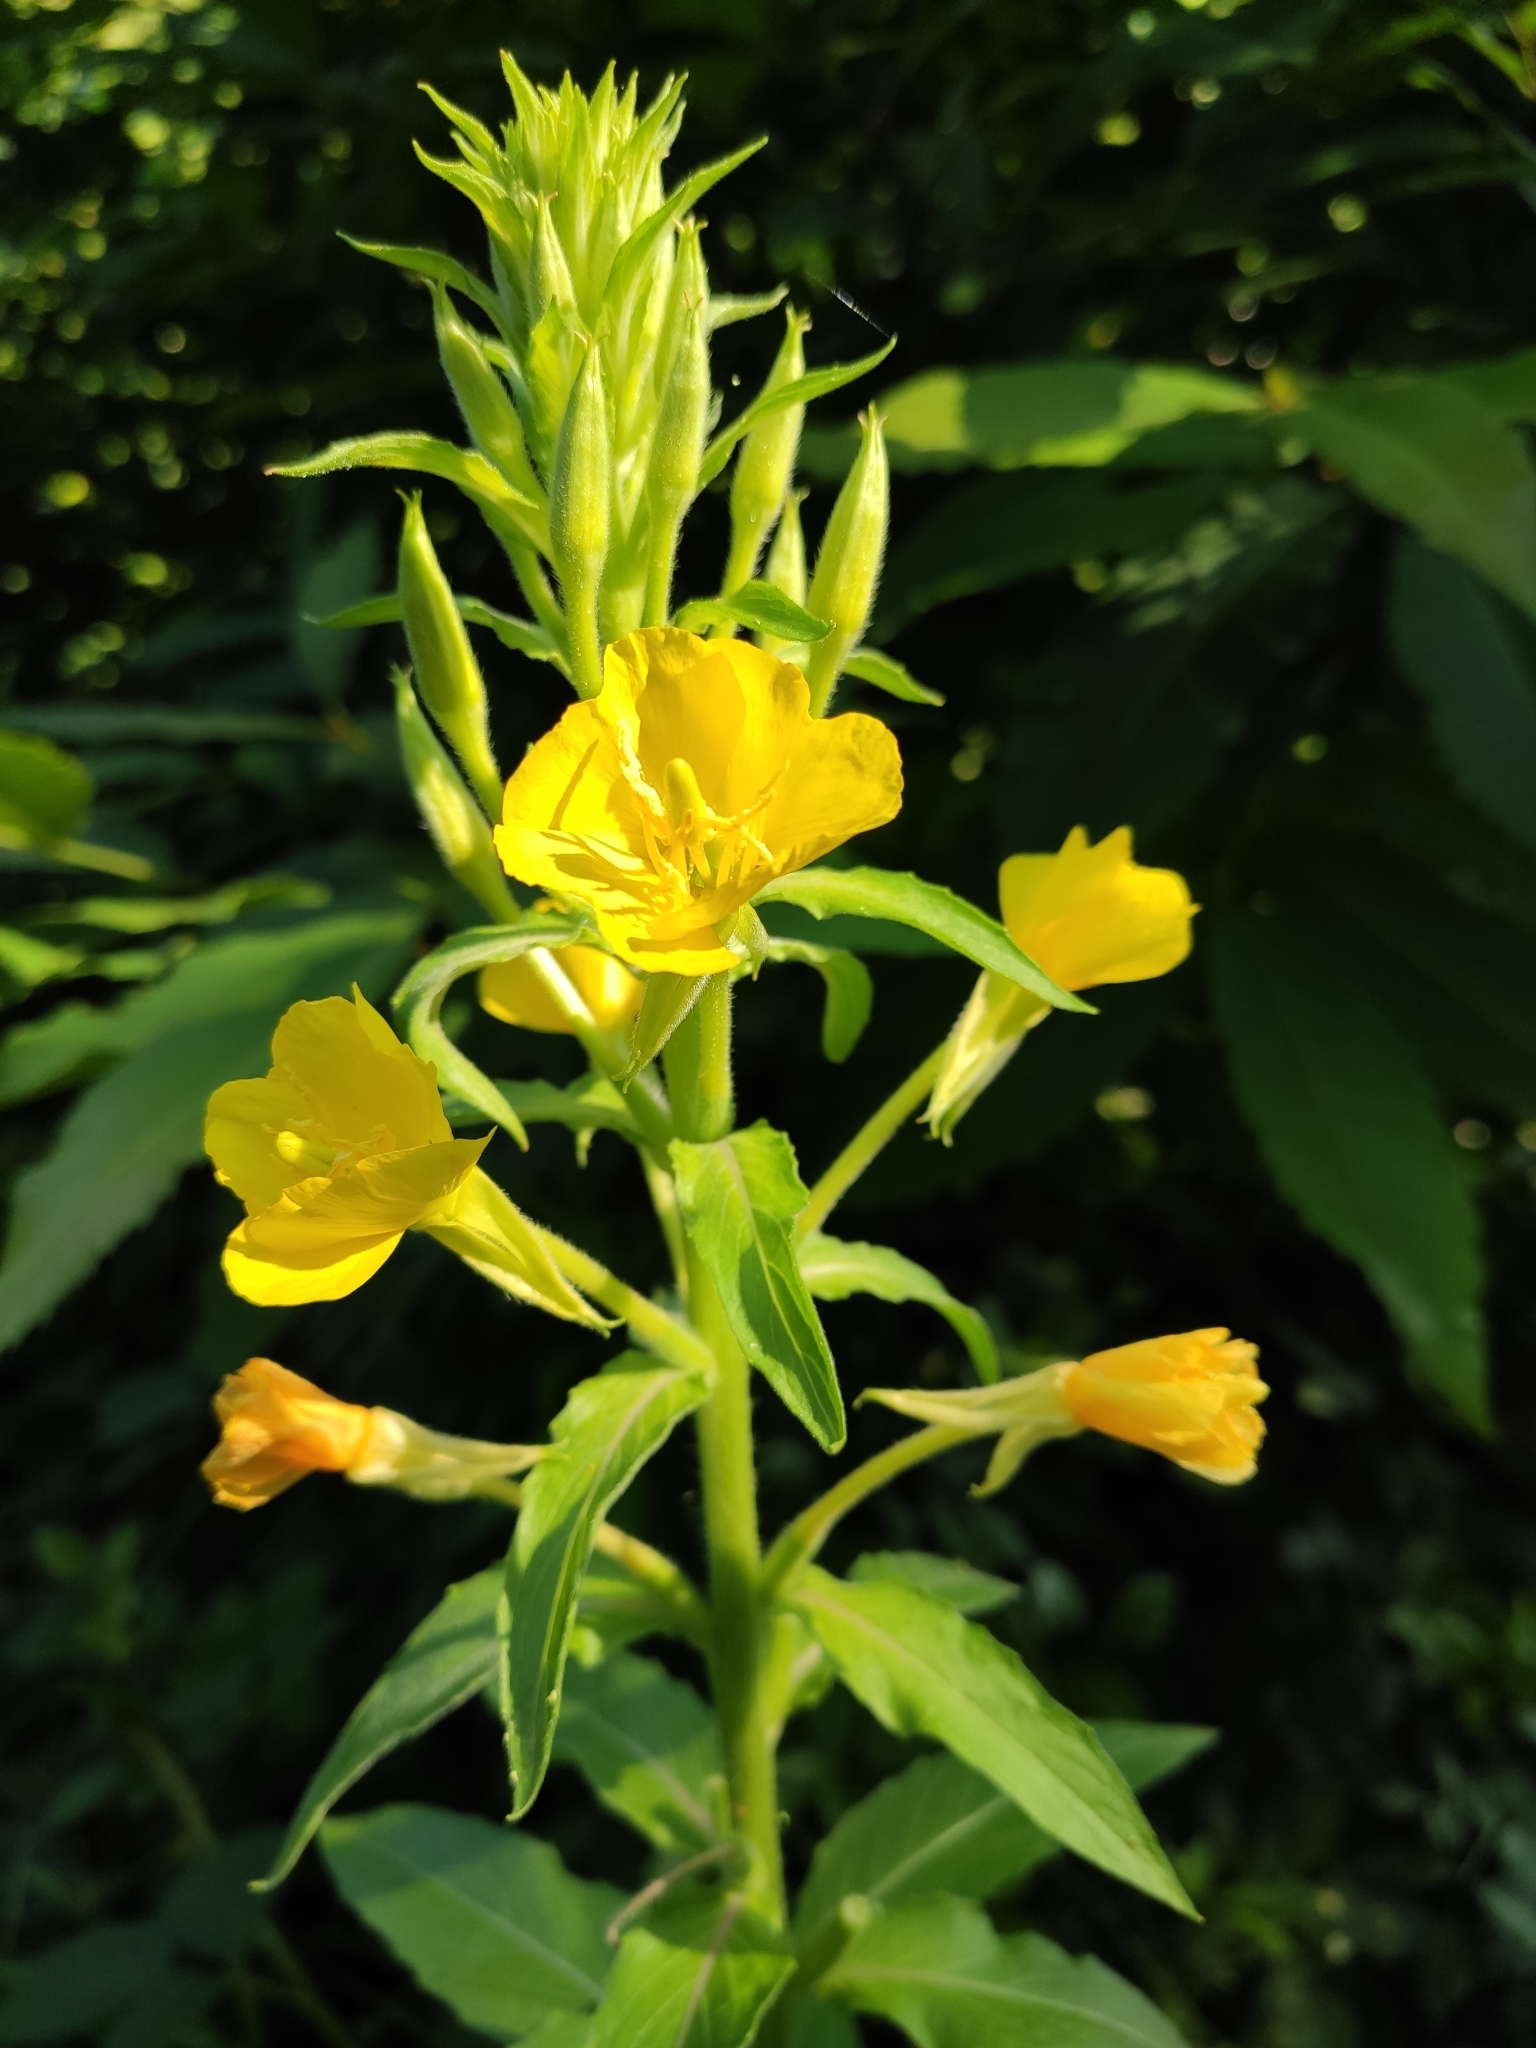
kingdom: Plantae
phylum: Tracheophyta
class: Magnoliopsida
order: Myrtales
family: Onagraceae
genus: Oenothera
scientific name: Oenothera biennis
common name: Common evening-primrose
